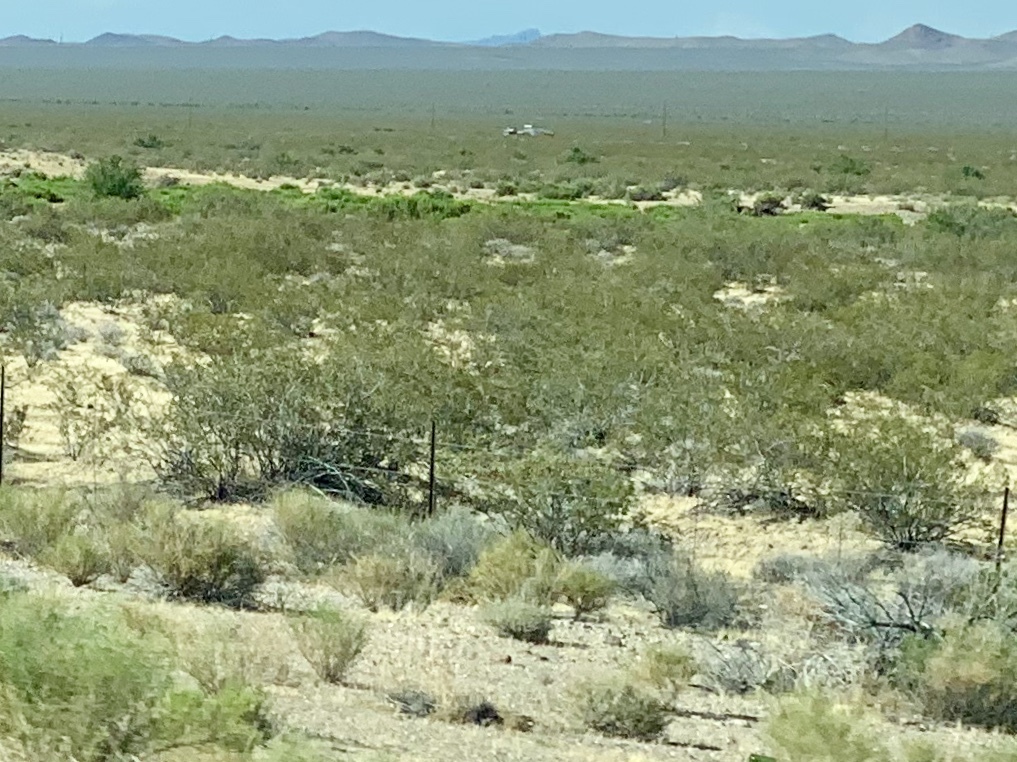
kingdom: Plantae
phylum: Tracheophyta
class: Magnoliopsida
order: Zygophyllales
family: Zygophyllaceae
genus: Larrea
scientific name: Larrea tridentata
